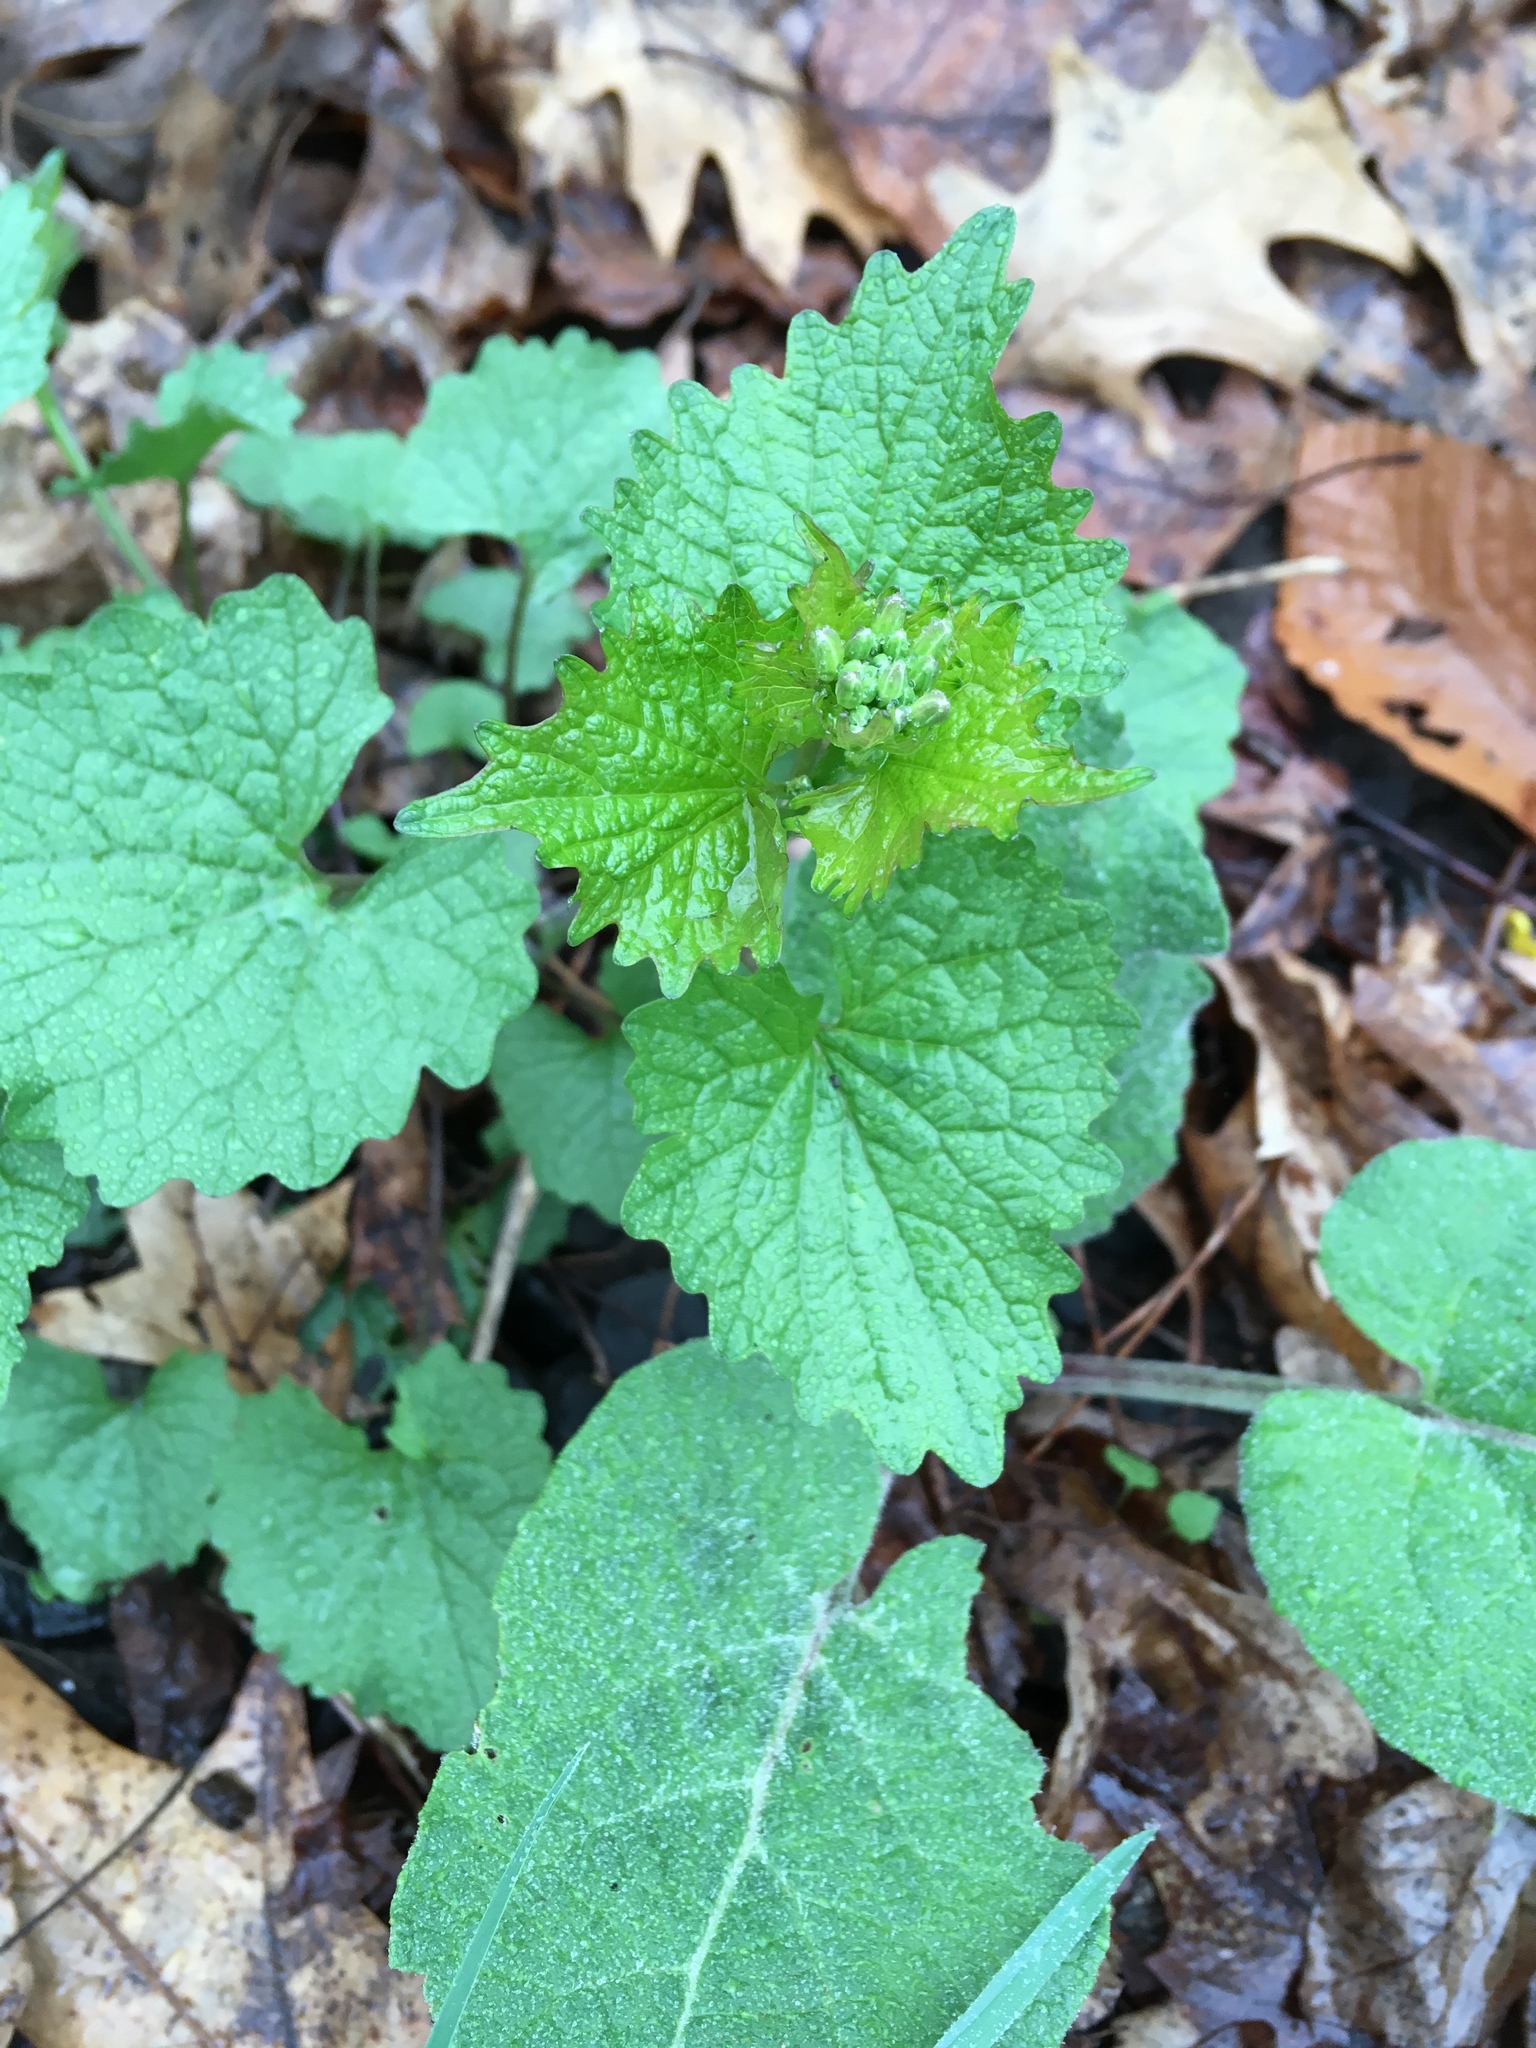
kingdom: Plantae
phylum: Tracheophyta
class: Magnoliopsida
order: Brassicales
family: Brassicaceae
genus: Alliaria
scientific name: Alliaria petiolata
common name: Garlic mustard
